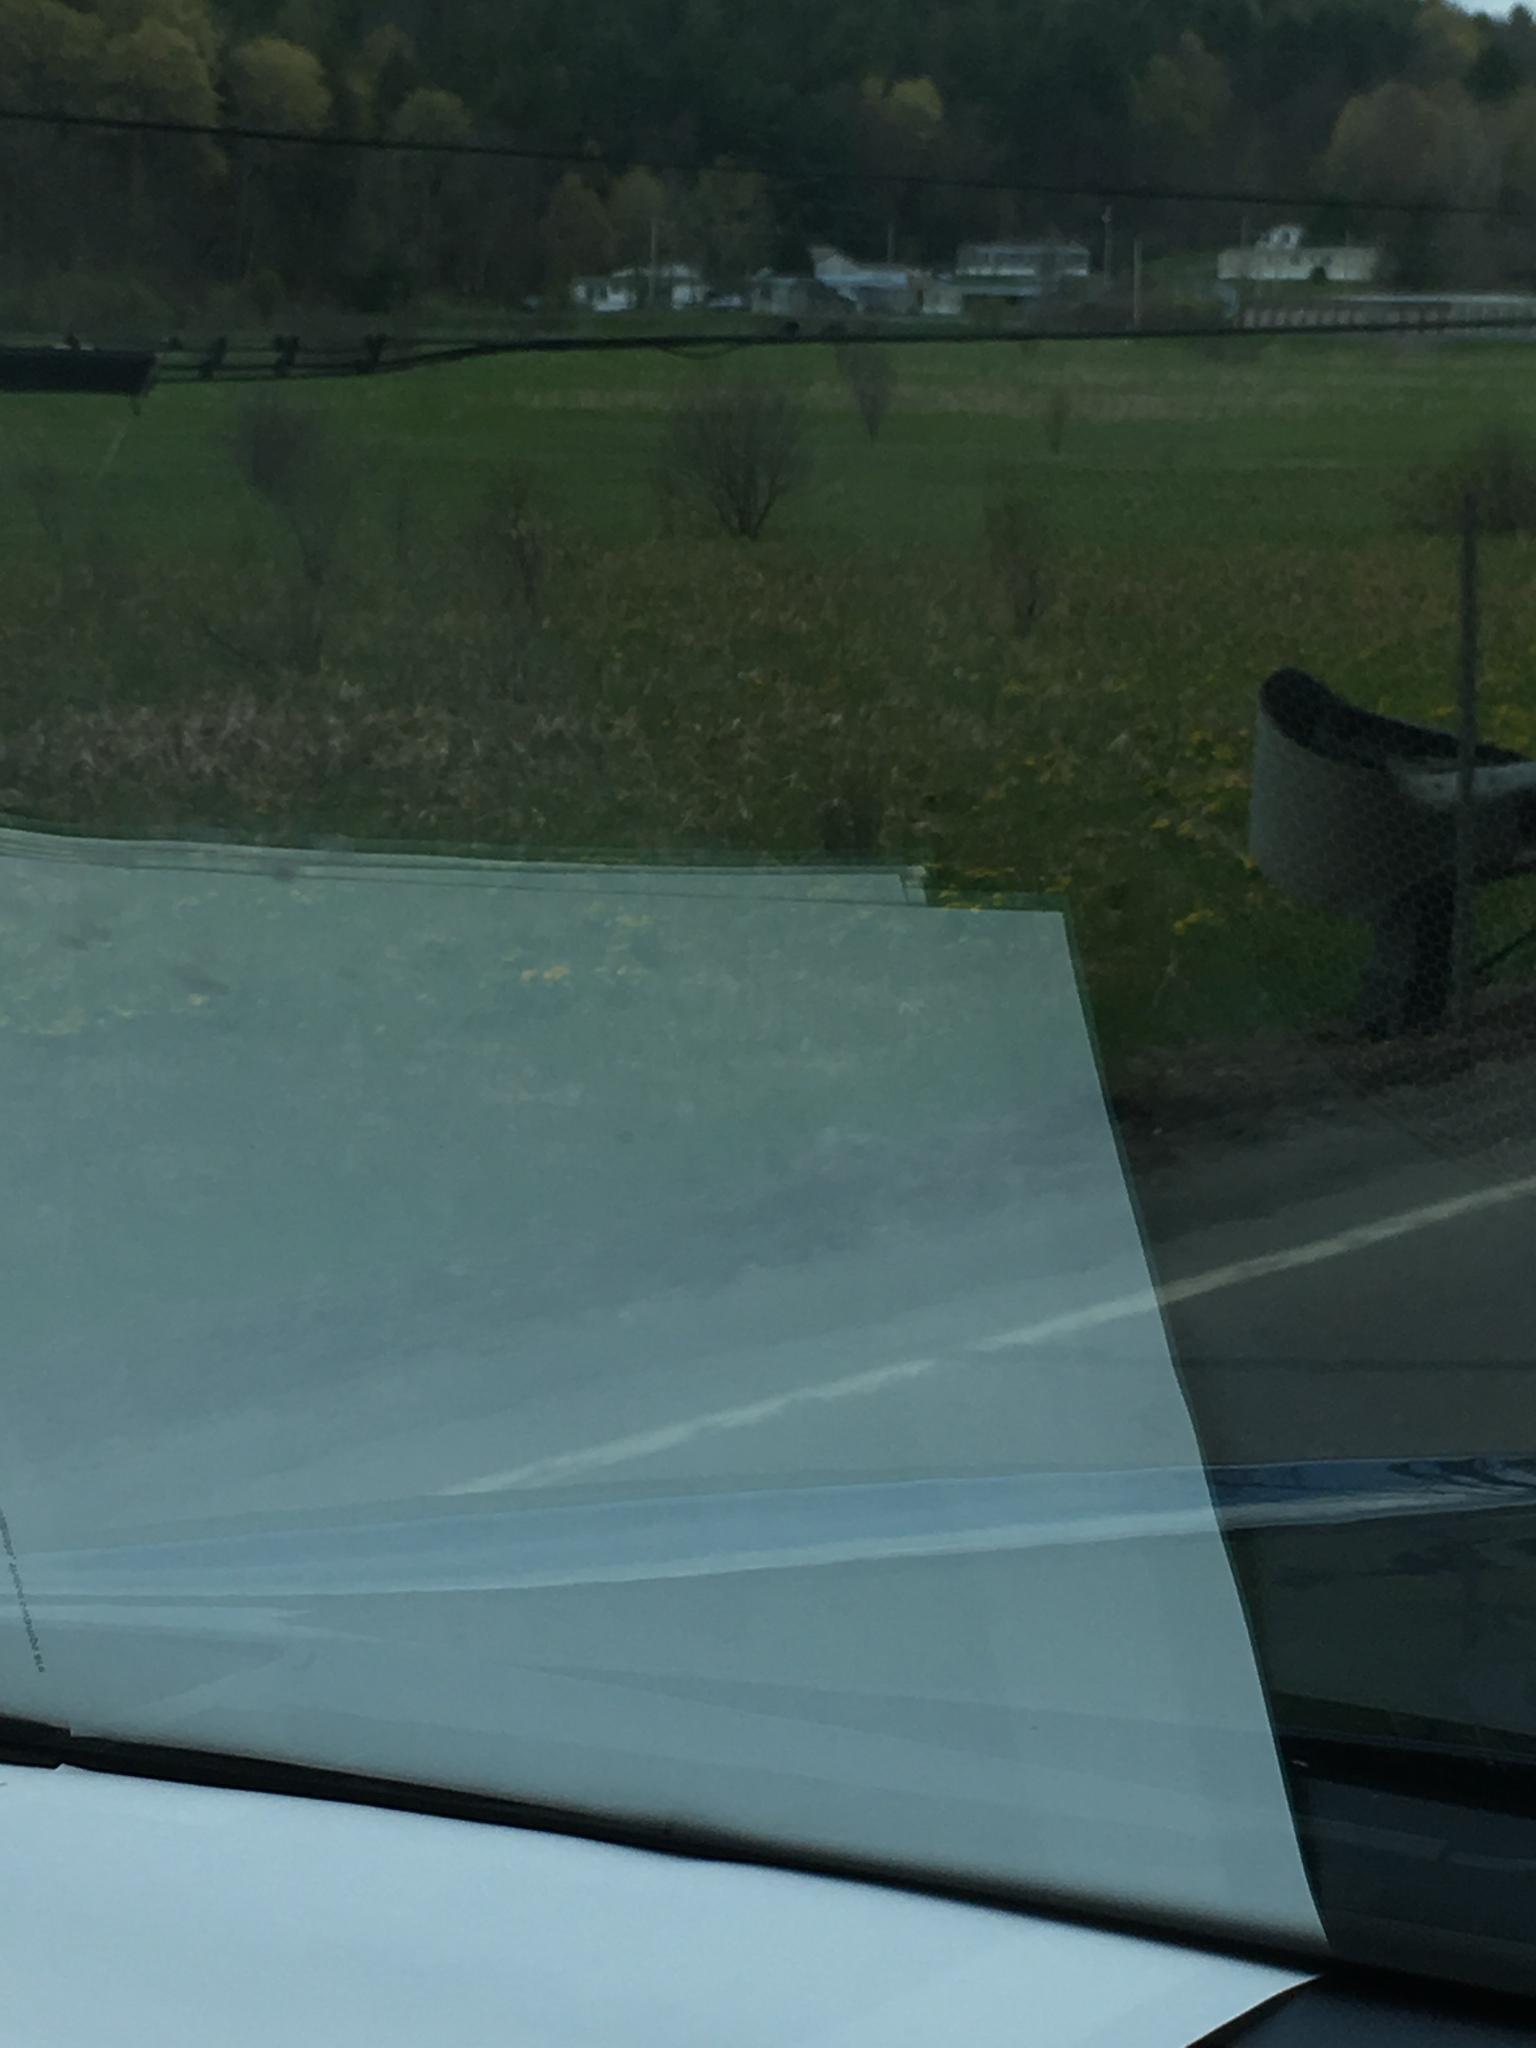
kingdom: Plantae
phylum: Tracheophyta
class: Magnoliopsida
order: Ranunculales
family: Ranunculaceae
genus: Caltha
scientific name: Caltha palustris
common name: Marsh marigold
